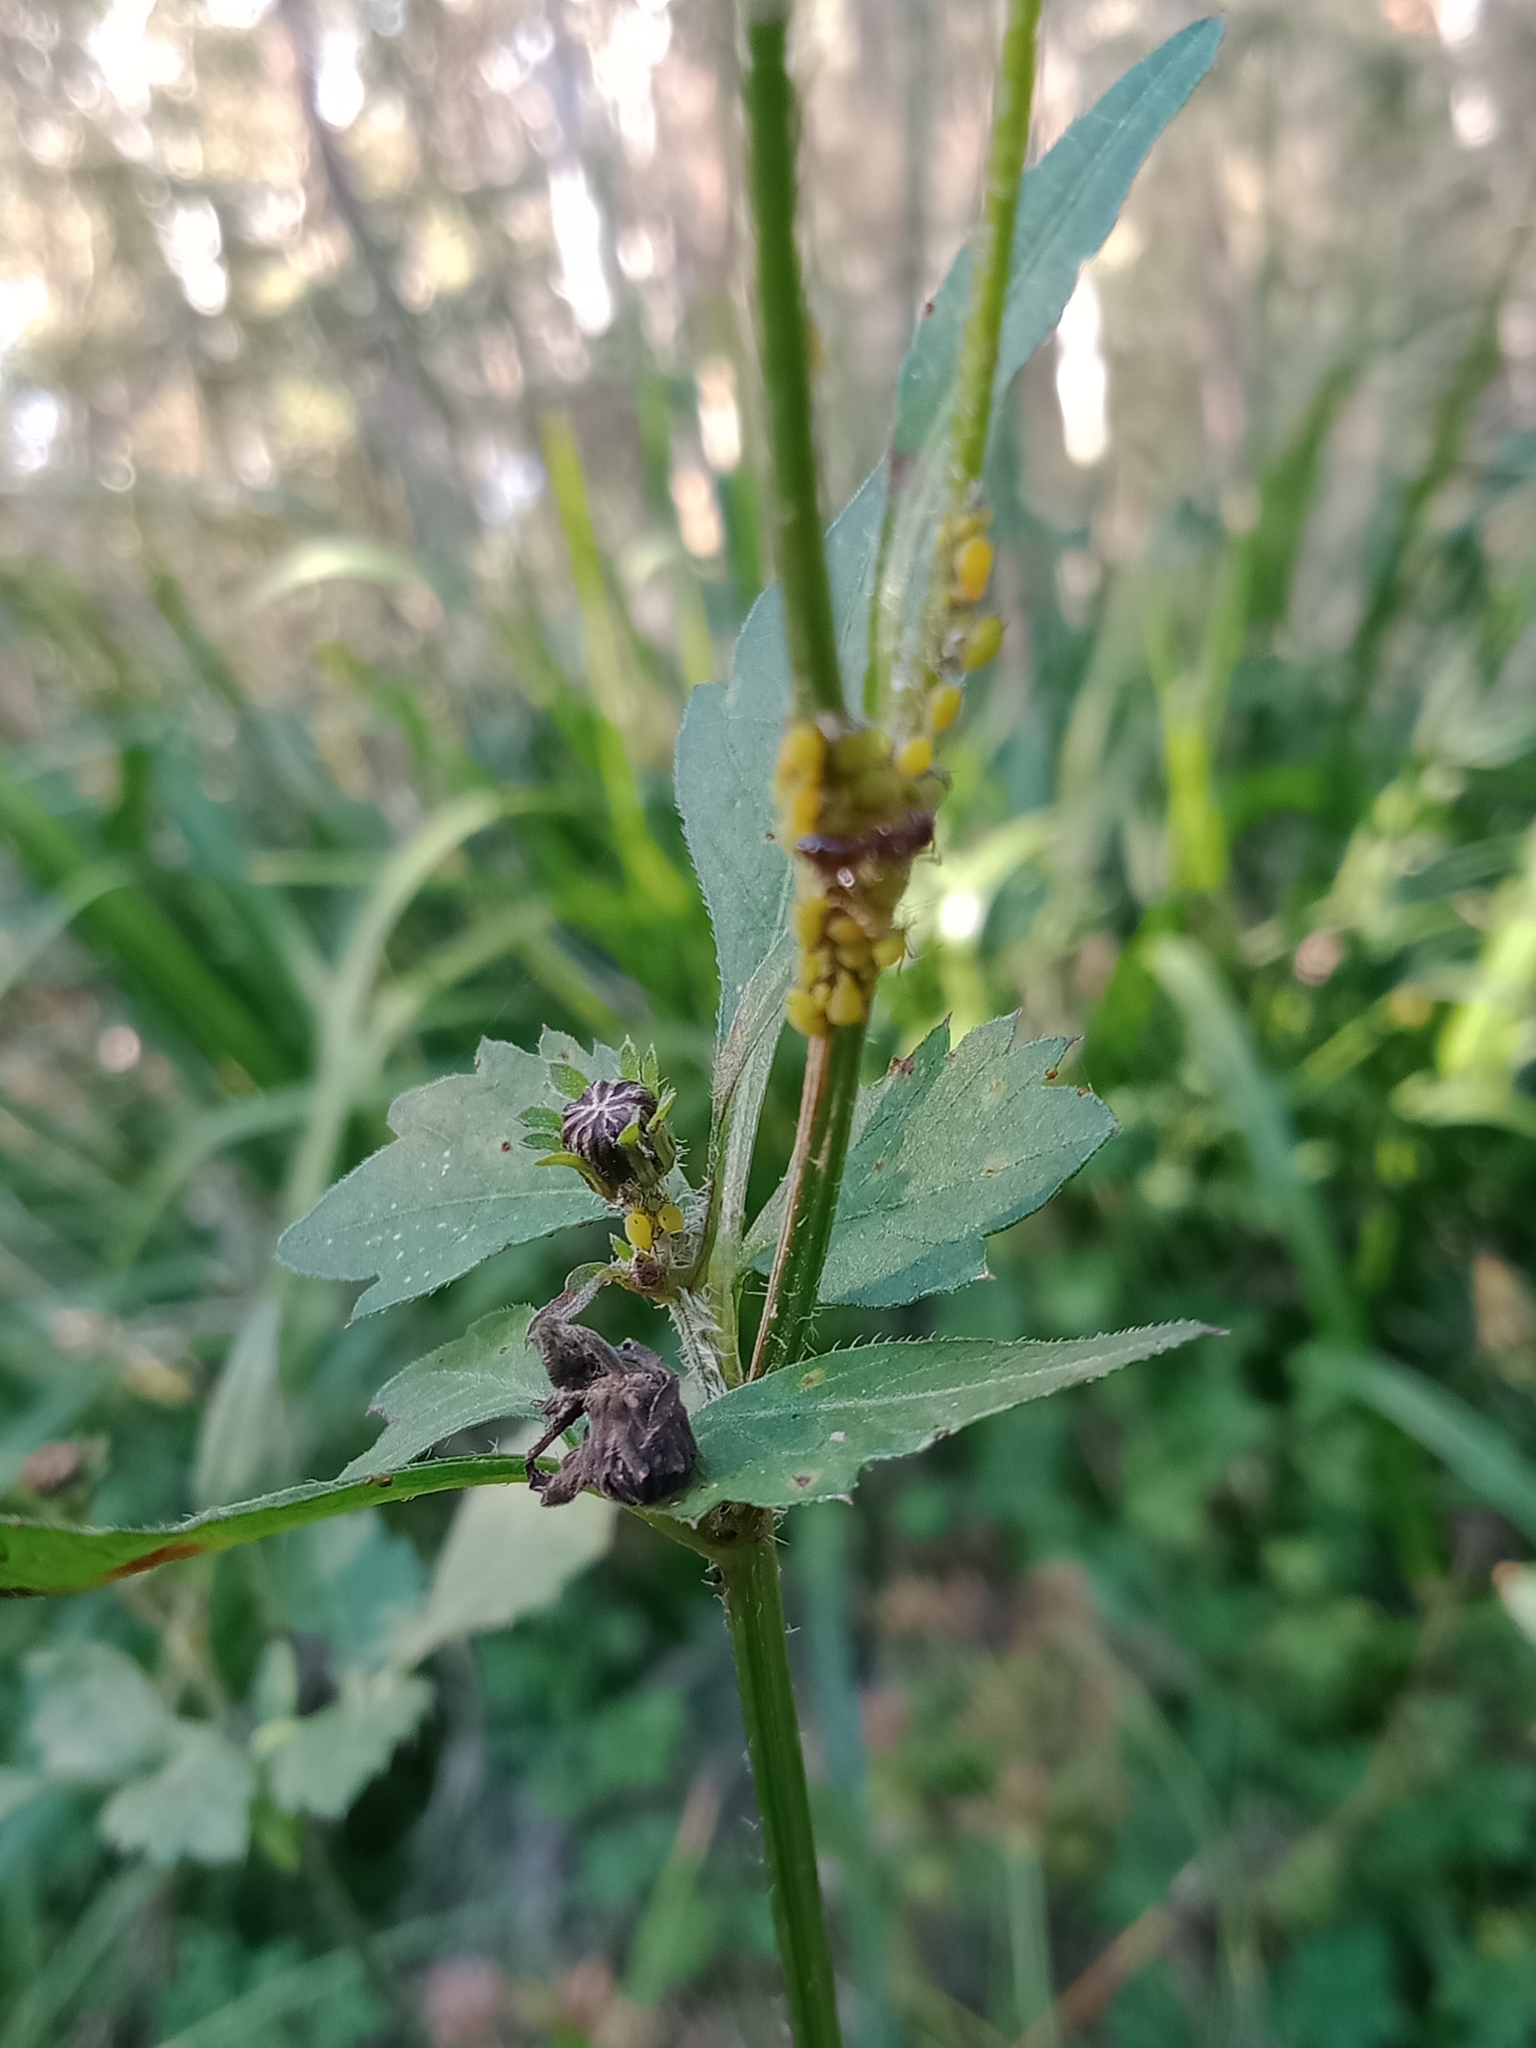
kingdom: Plantae
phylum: Tracheophyta
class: Magnoliopsida
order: Asterales
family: Asteraceae
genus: Bidens
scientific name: Bidens pilosa
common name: Black-jack
